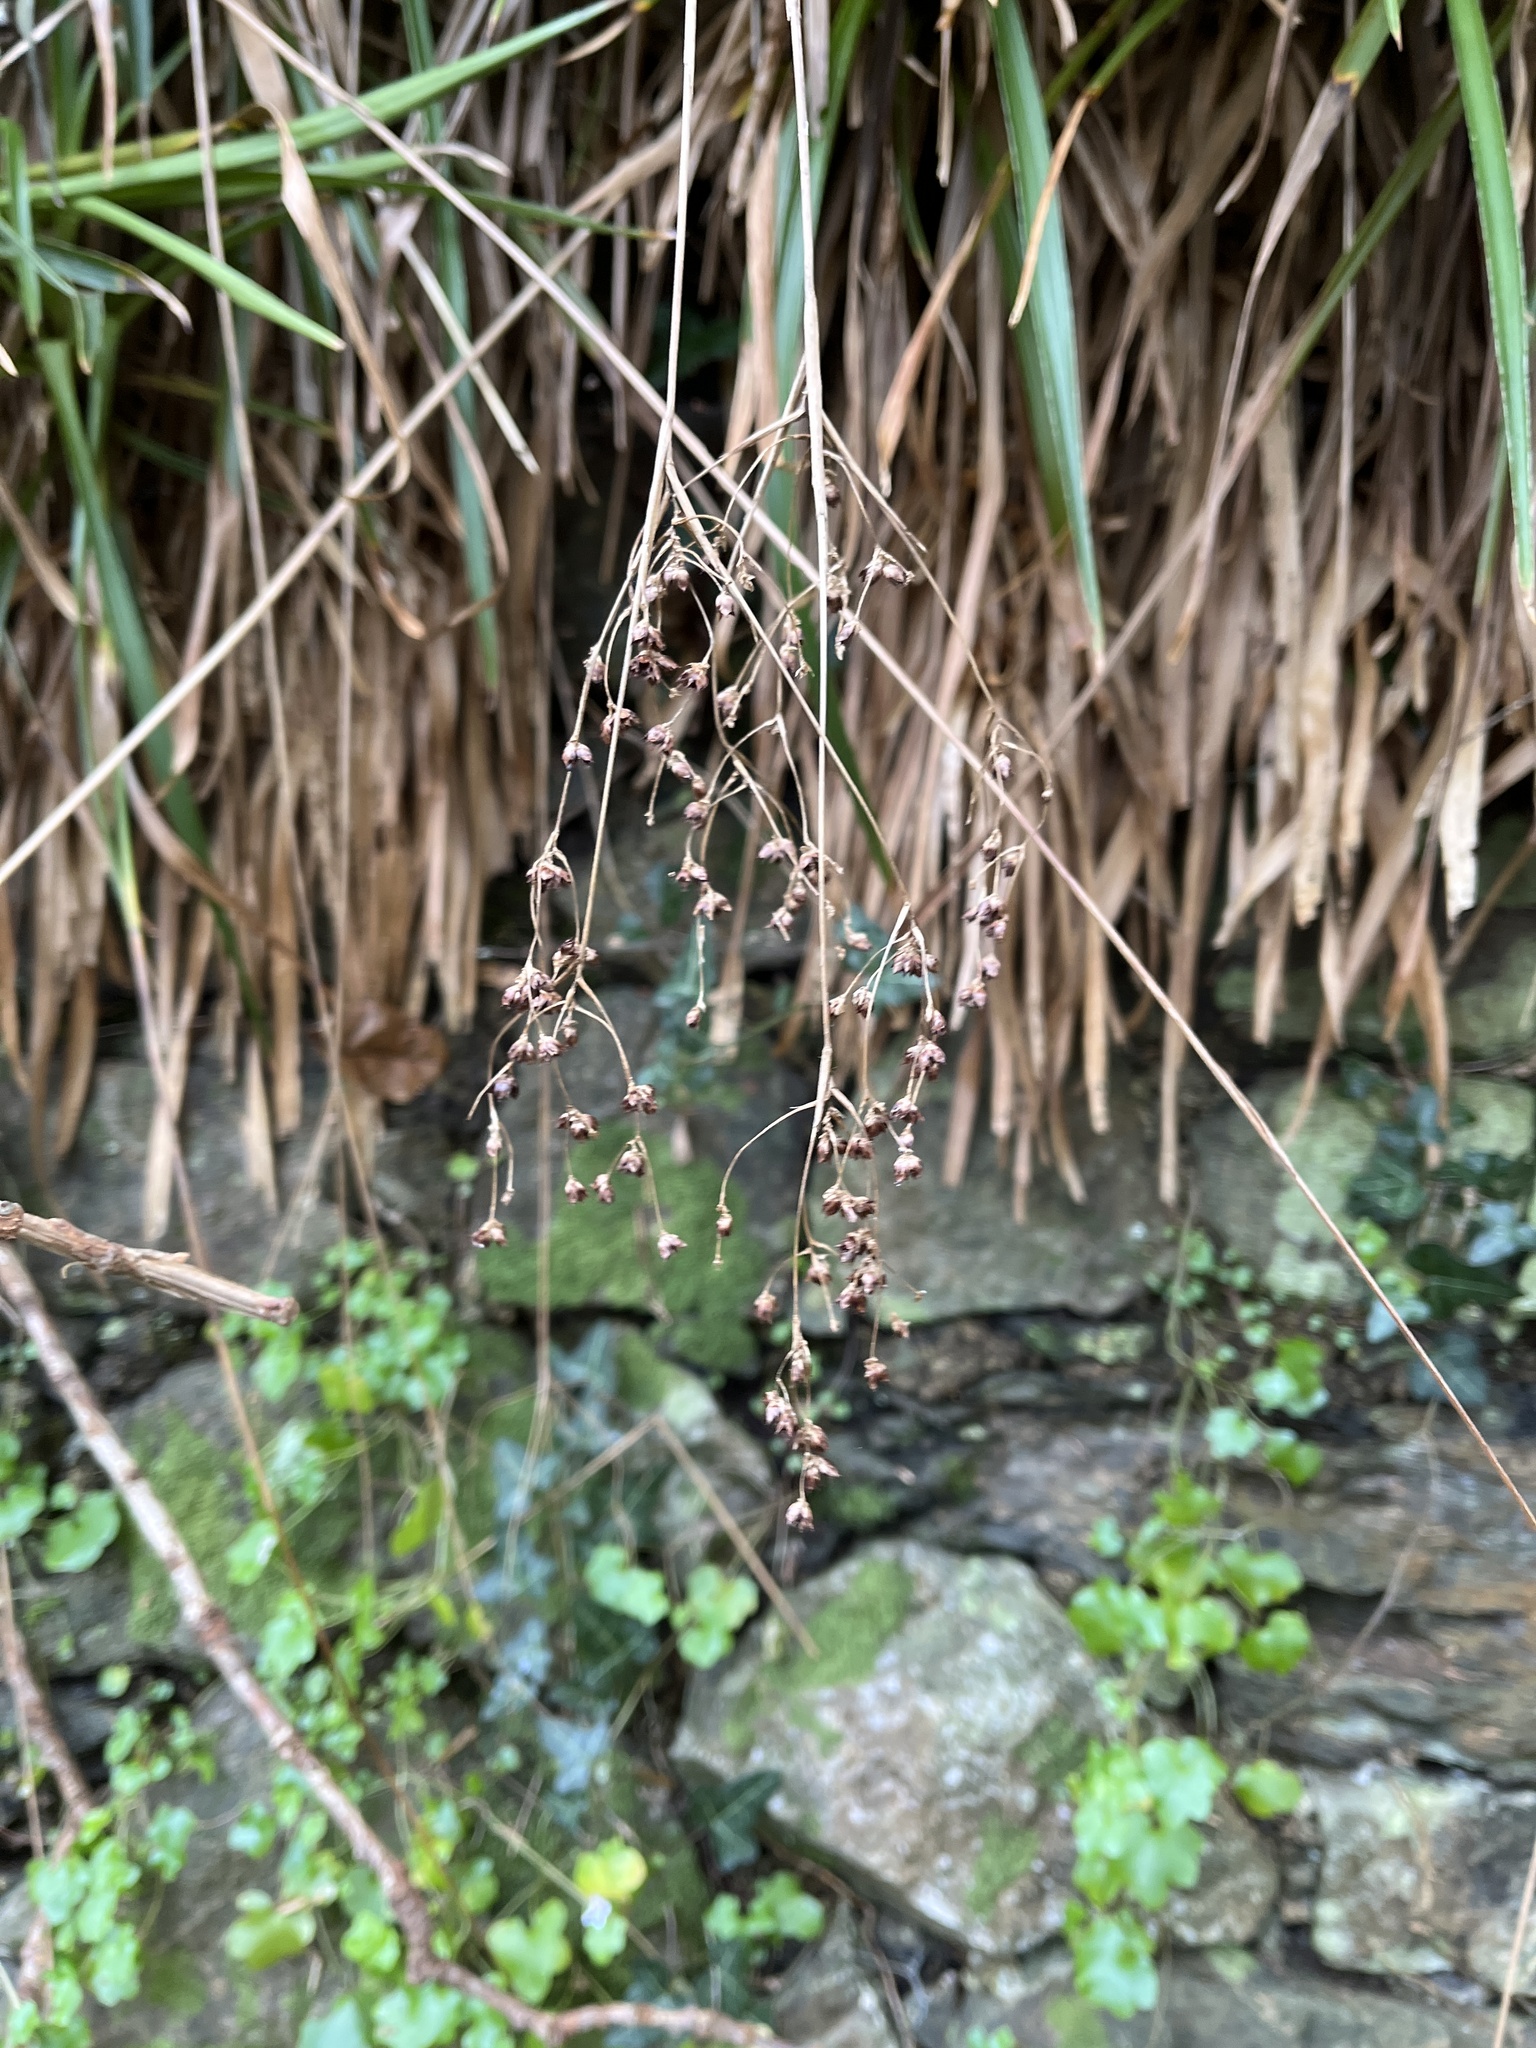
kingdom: Plantae
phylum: Tracheophyta
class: Liliopsida
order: Poales
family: Juncaceae
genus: Luzula
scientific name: Luzula sylvatica
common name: Great wood-rush
